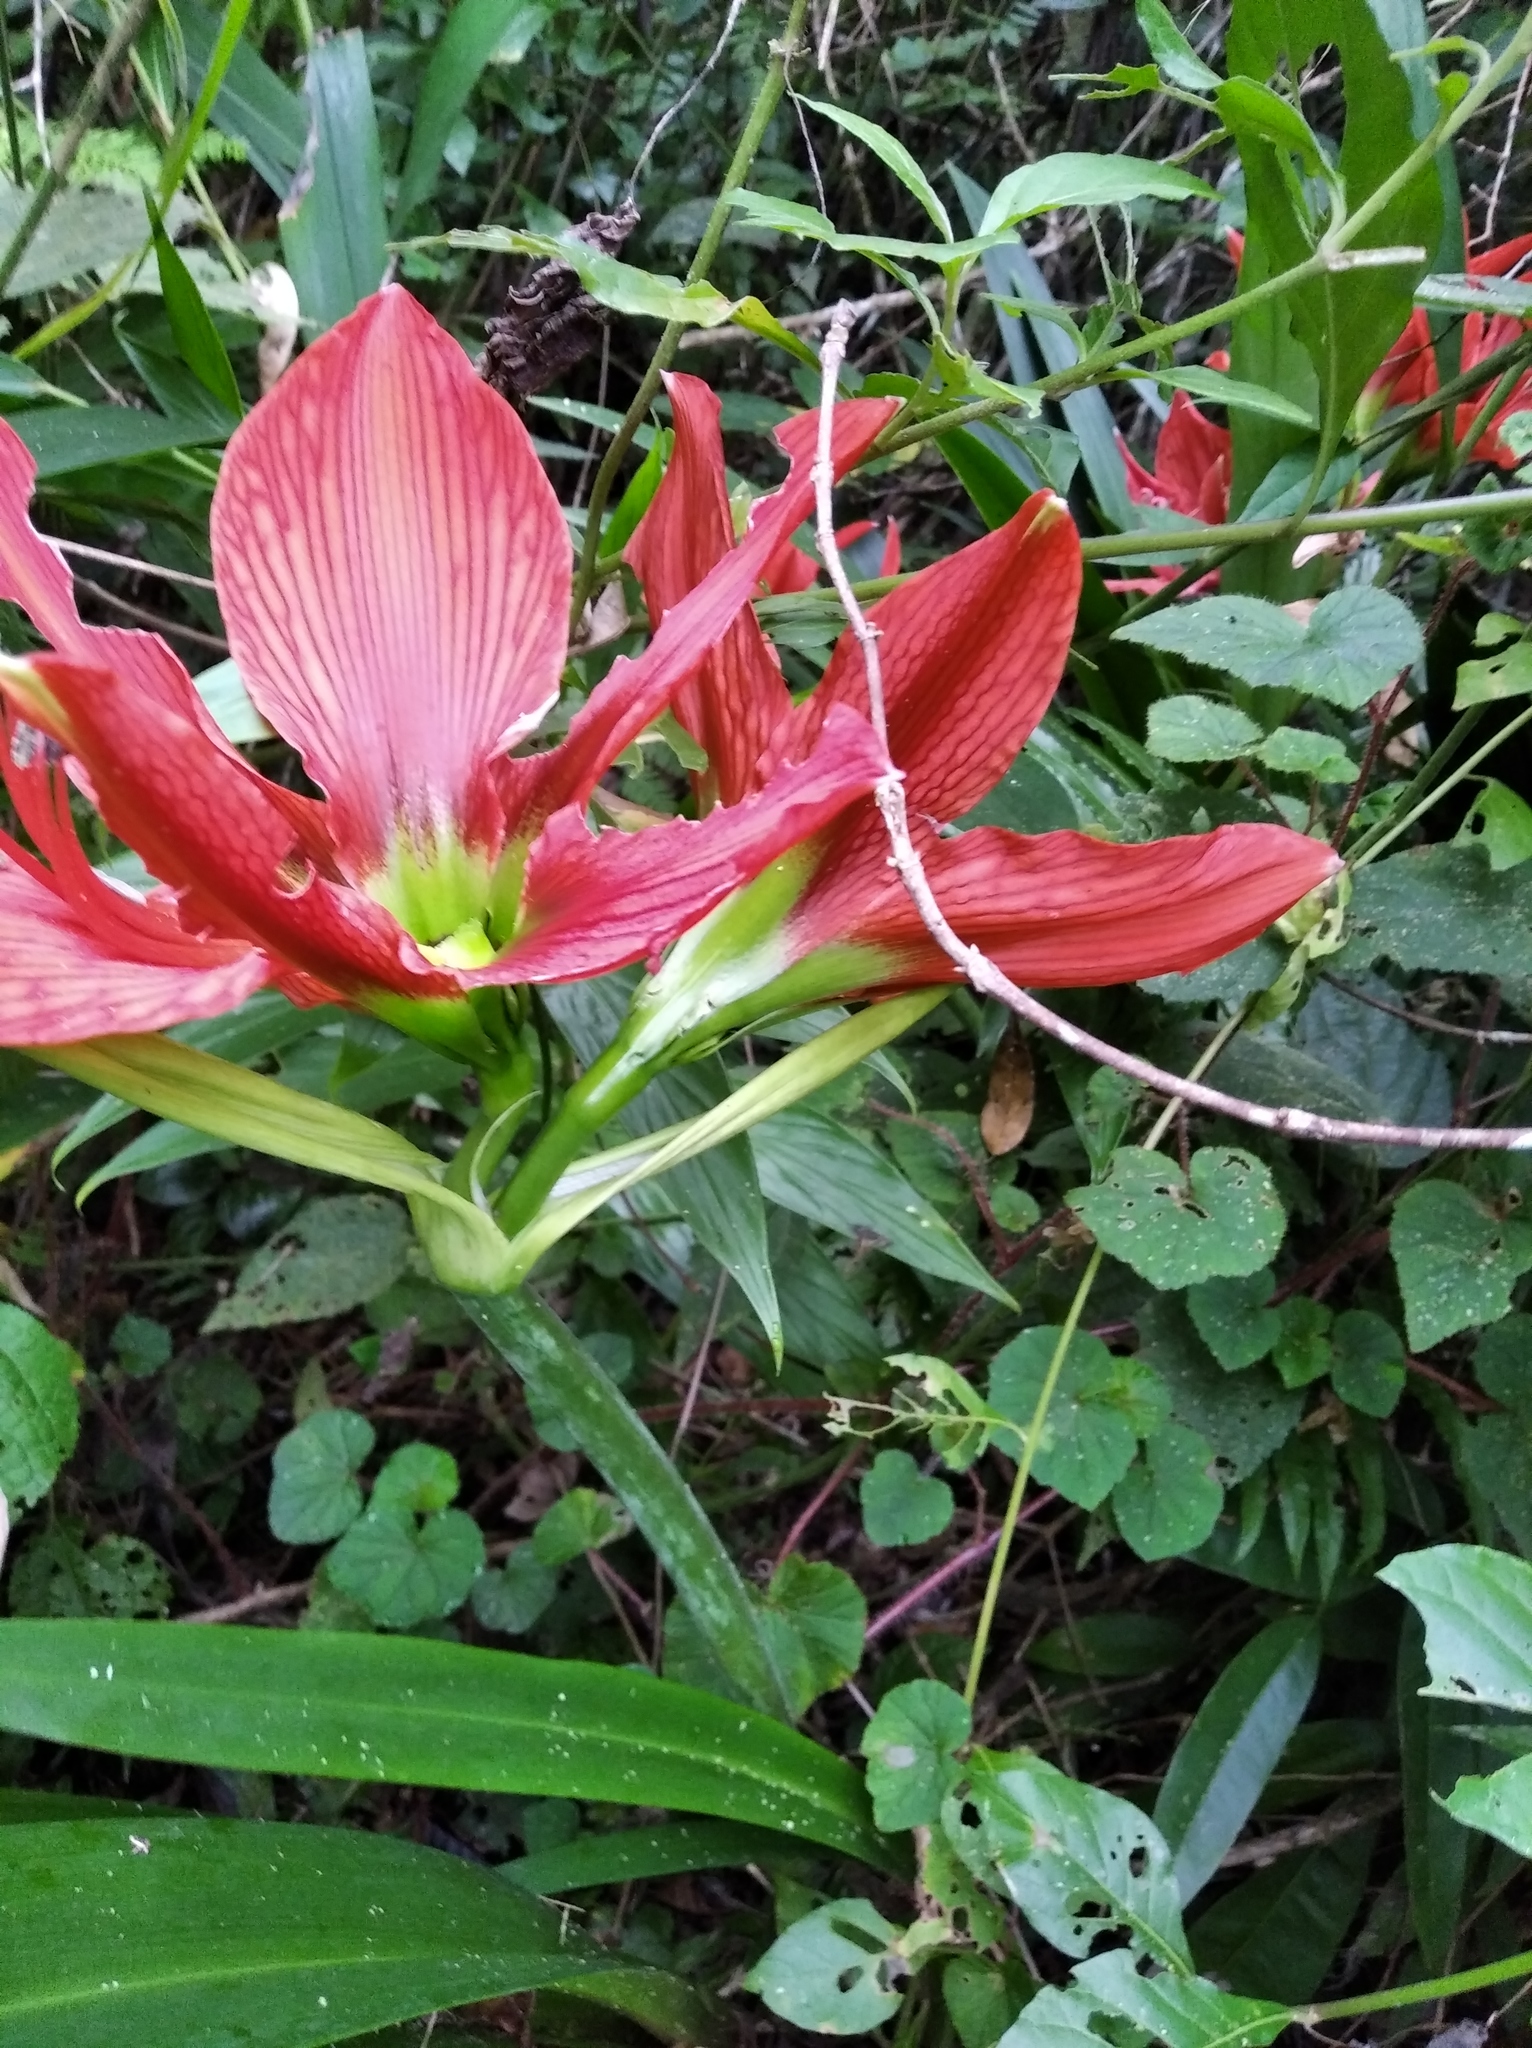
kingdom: Plantae
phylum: Tracheophyta
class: Liliopsida
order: Asparagales
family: Amaryllidaceae
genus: Hippeastrum
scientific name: Hippeastrum aulicum
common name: Lily-of-the-palace
